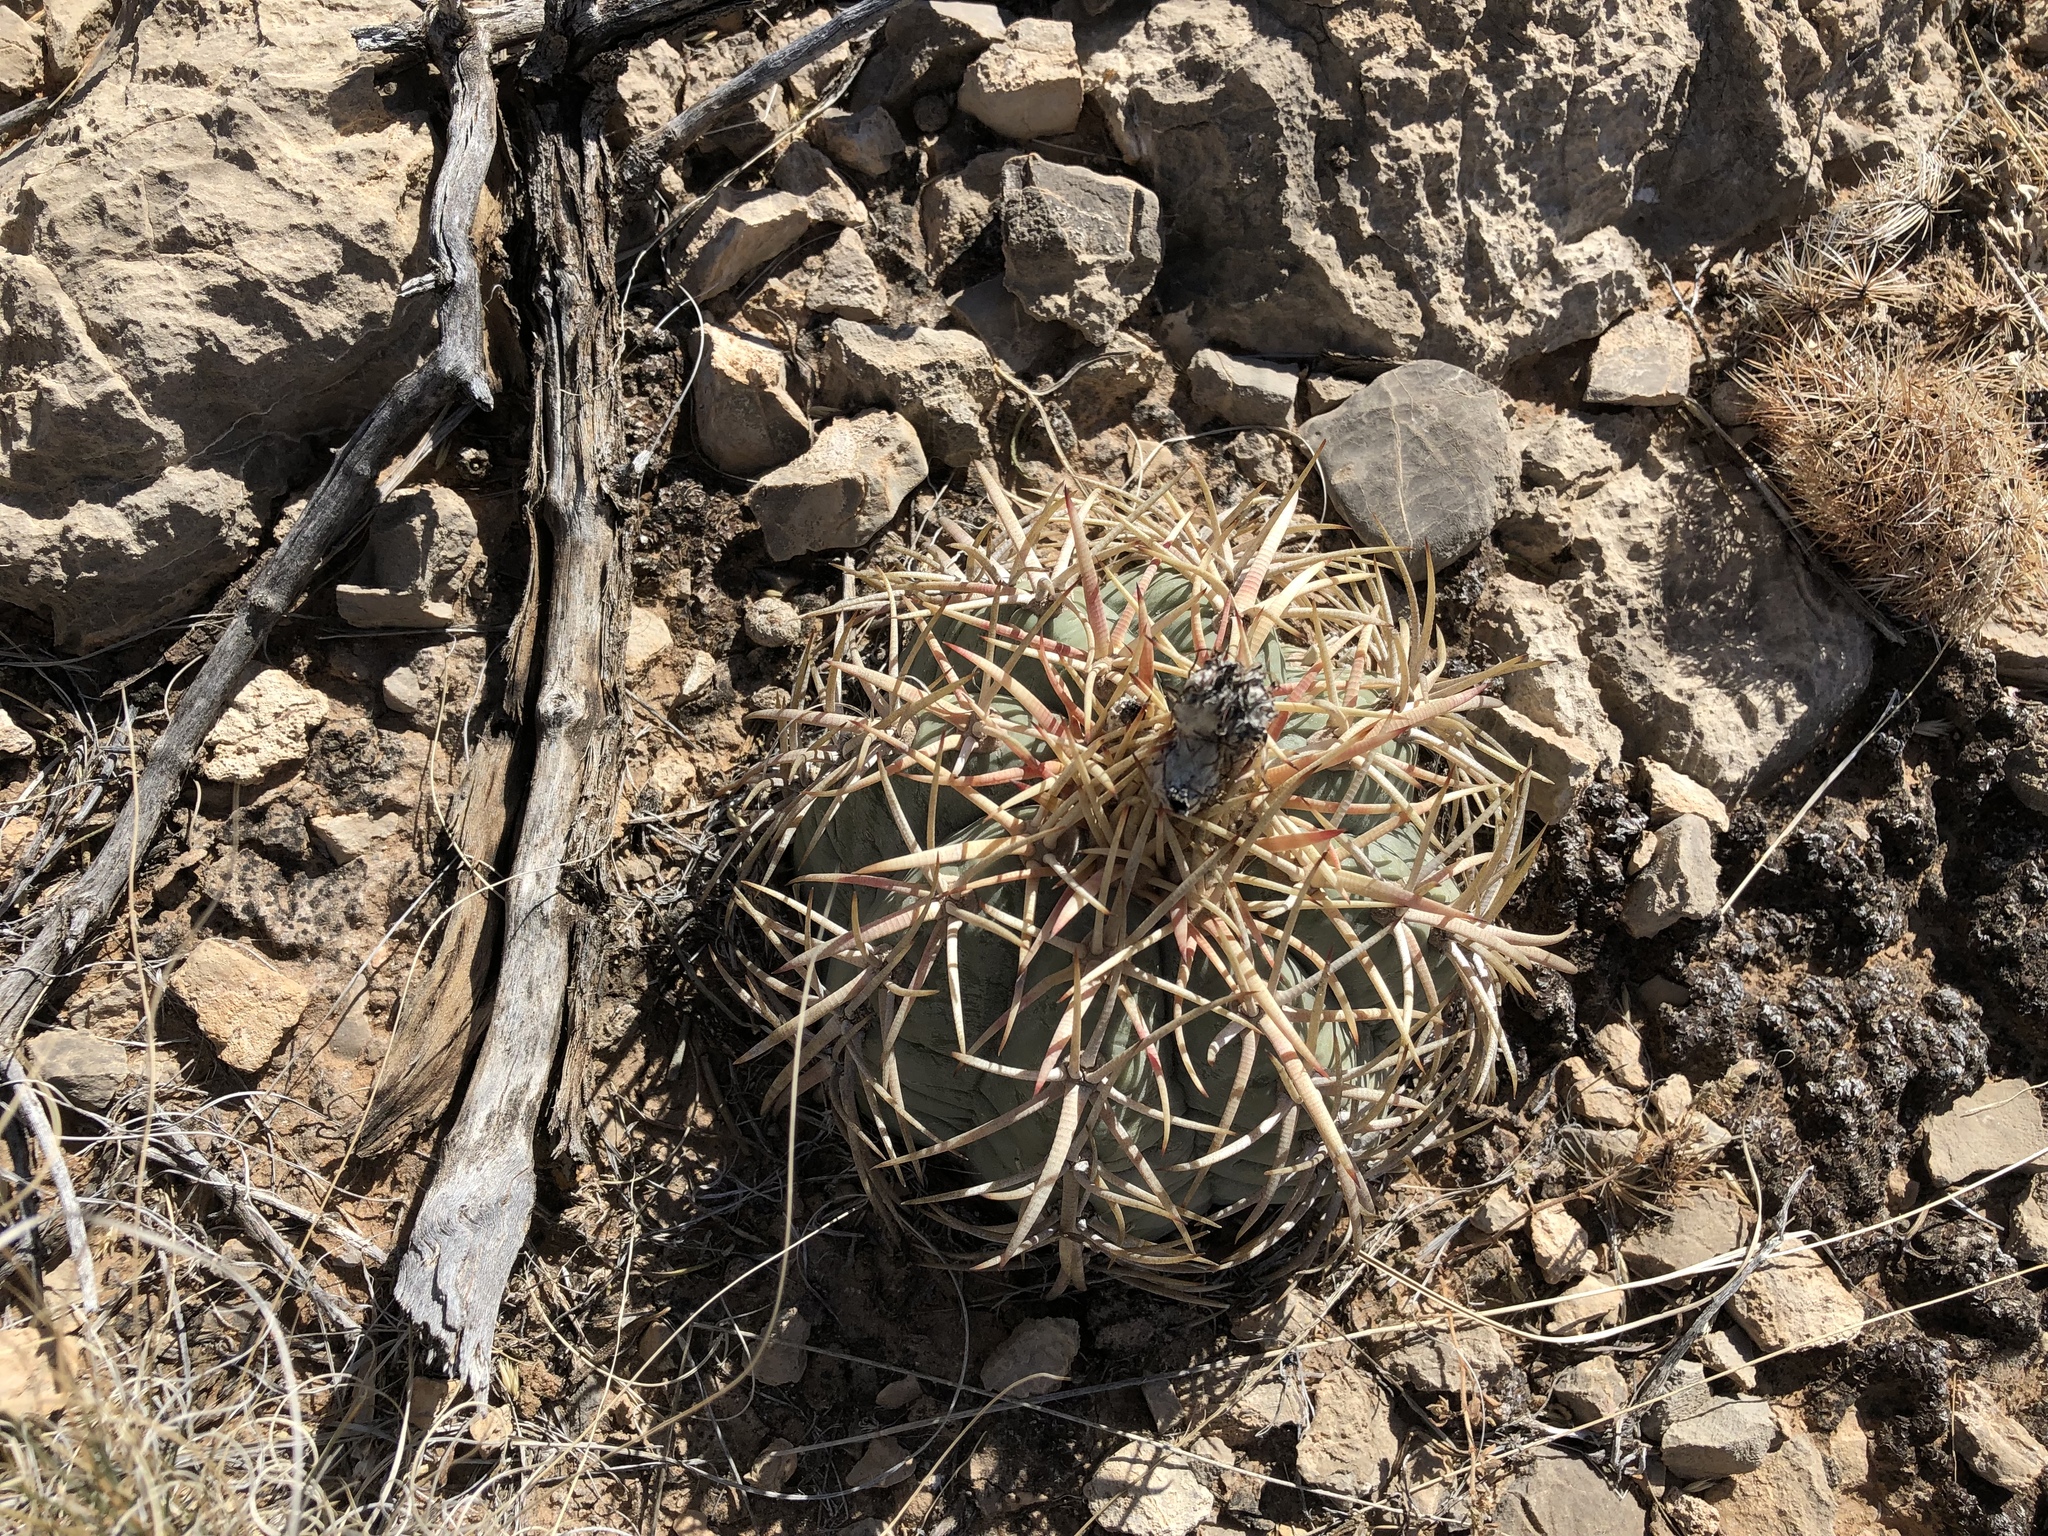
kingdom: Plantae
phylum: Tracheophyta
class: Magnoliopsida
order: Caryophyllales
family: Cactaceae
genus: Echinocactus
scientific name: Echinocactus horizonthalonius
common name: Devilshead
